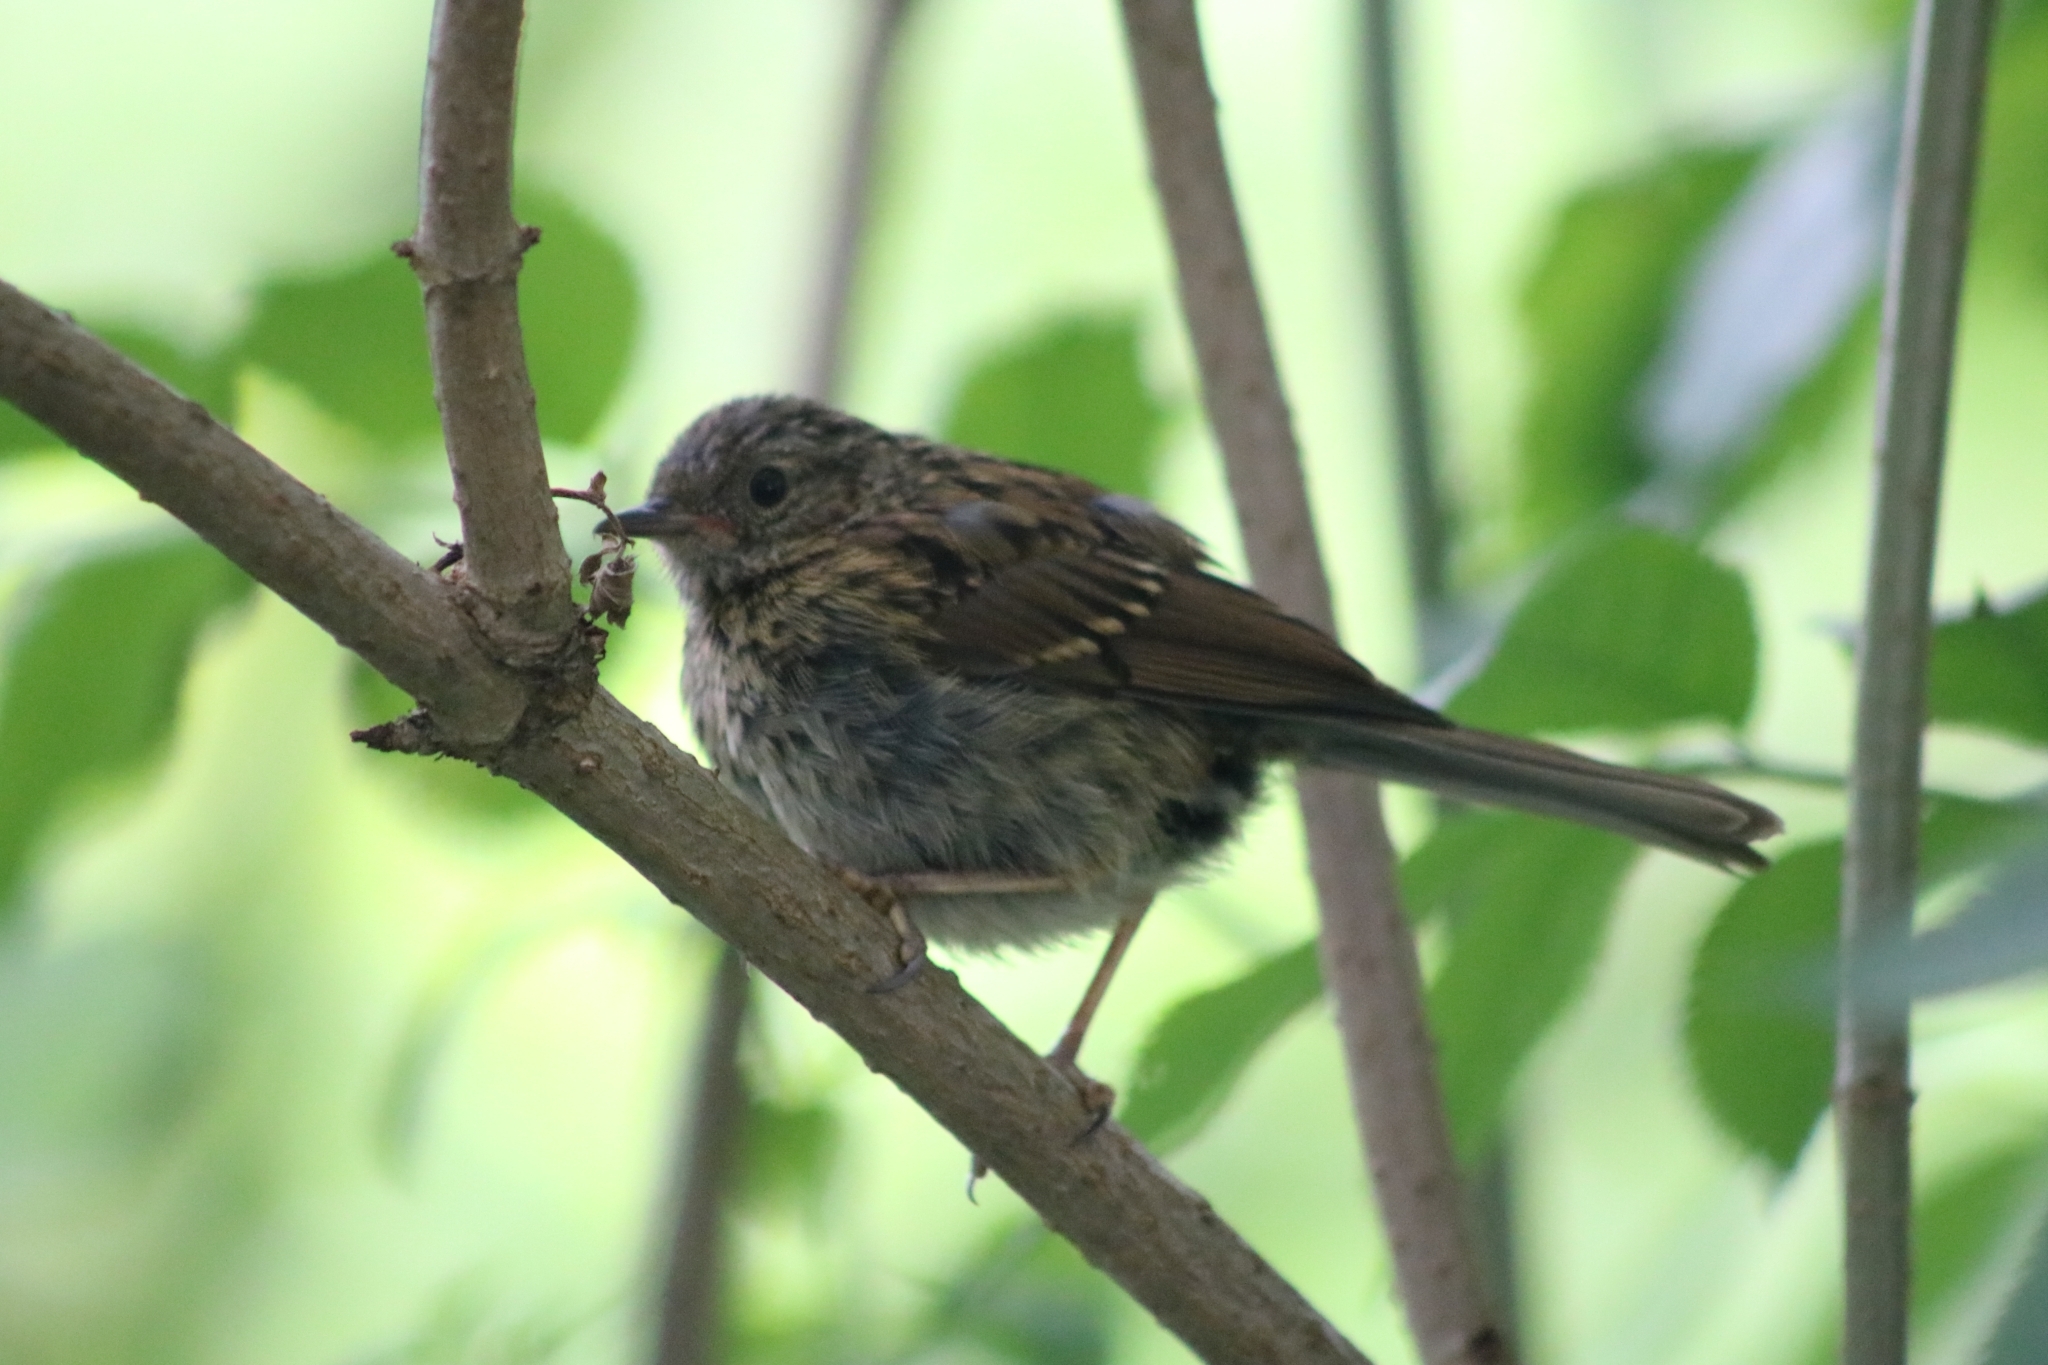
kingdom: Animalia
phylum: Chordata
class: Aves
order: Passeriformes
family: Prunellidae
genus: Prunella
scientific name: Prunella modularis
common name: Dunnock
